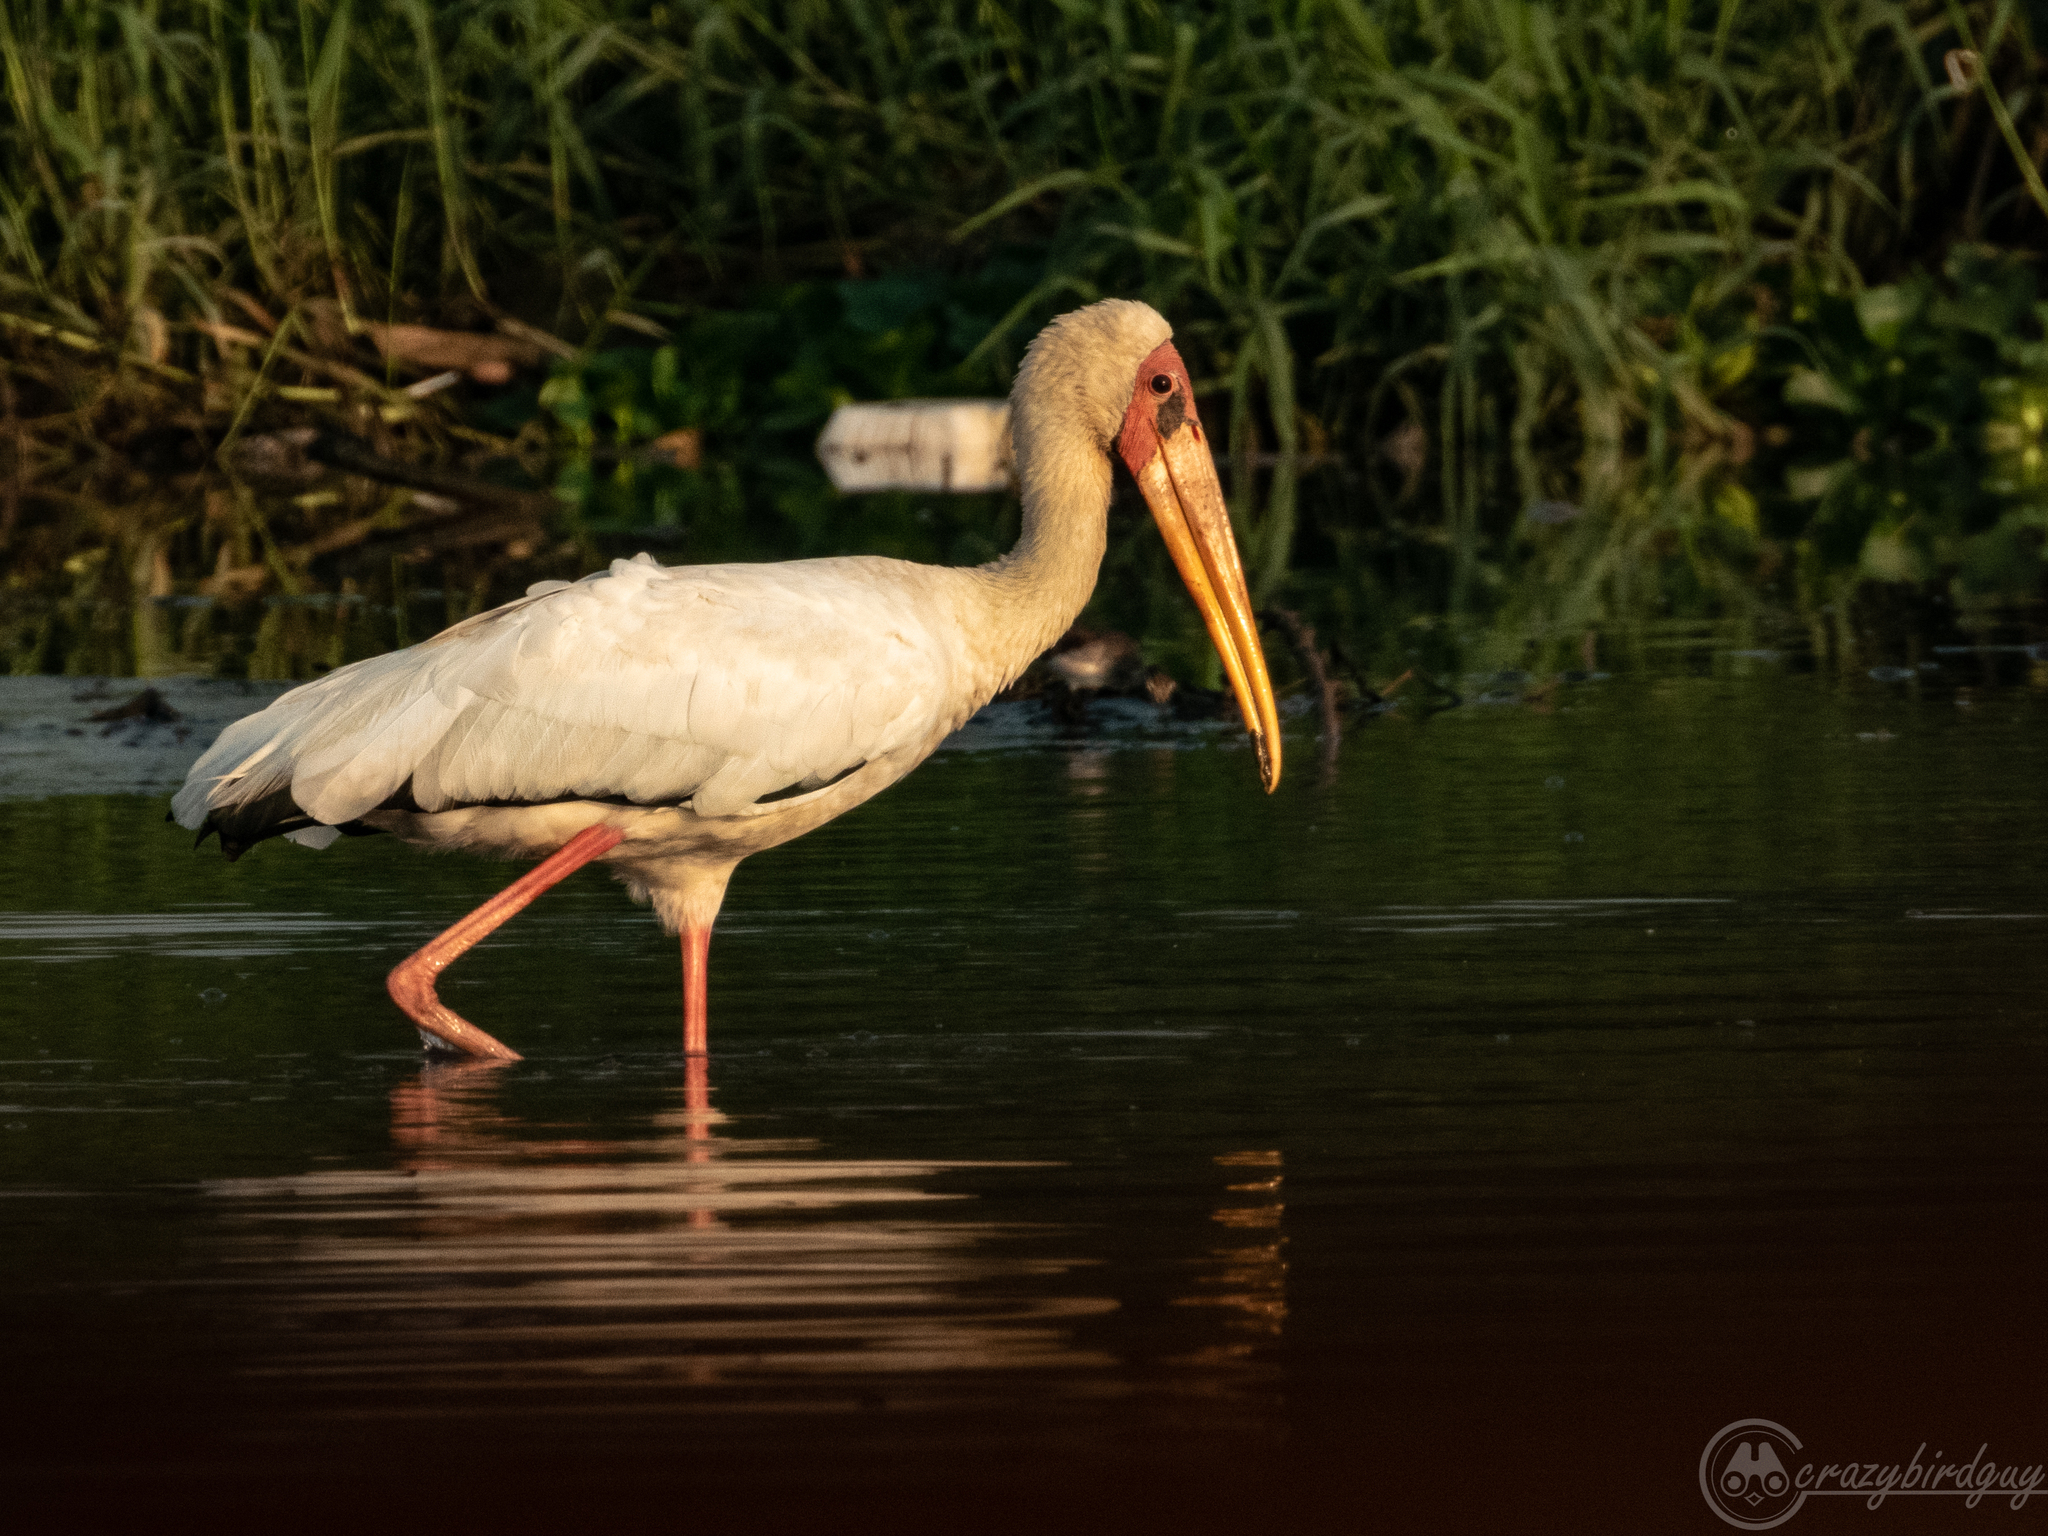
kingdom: Animalia
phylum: Chordata
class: Aves
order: Ciconiiformes
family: Ciconiidae
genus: Mycteria
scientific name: Mycteria cinerea
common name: Milky stork
